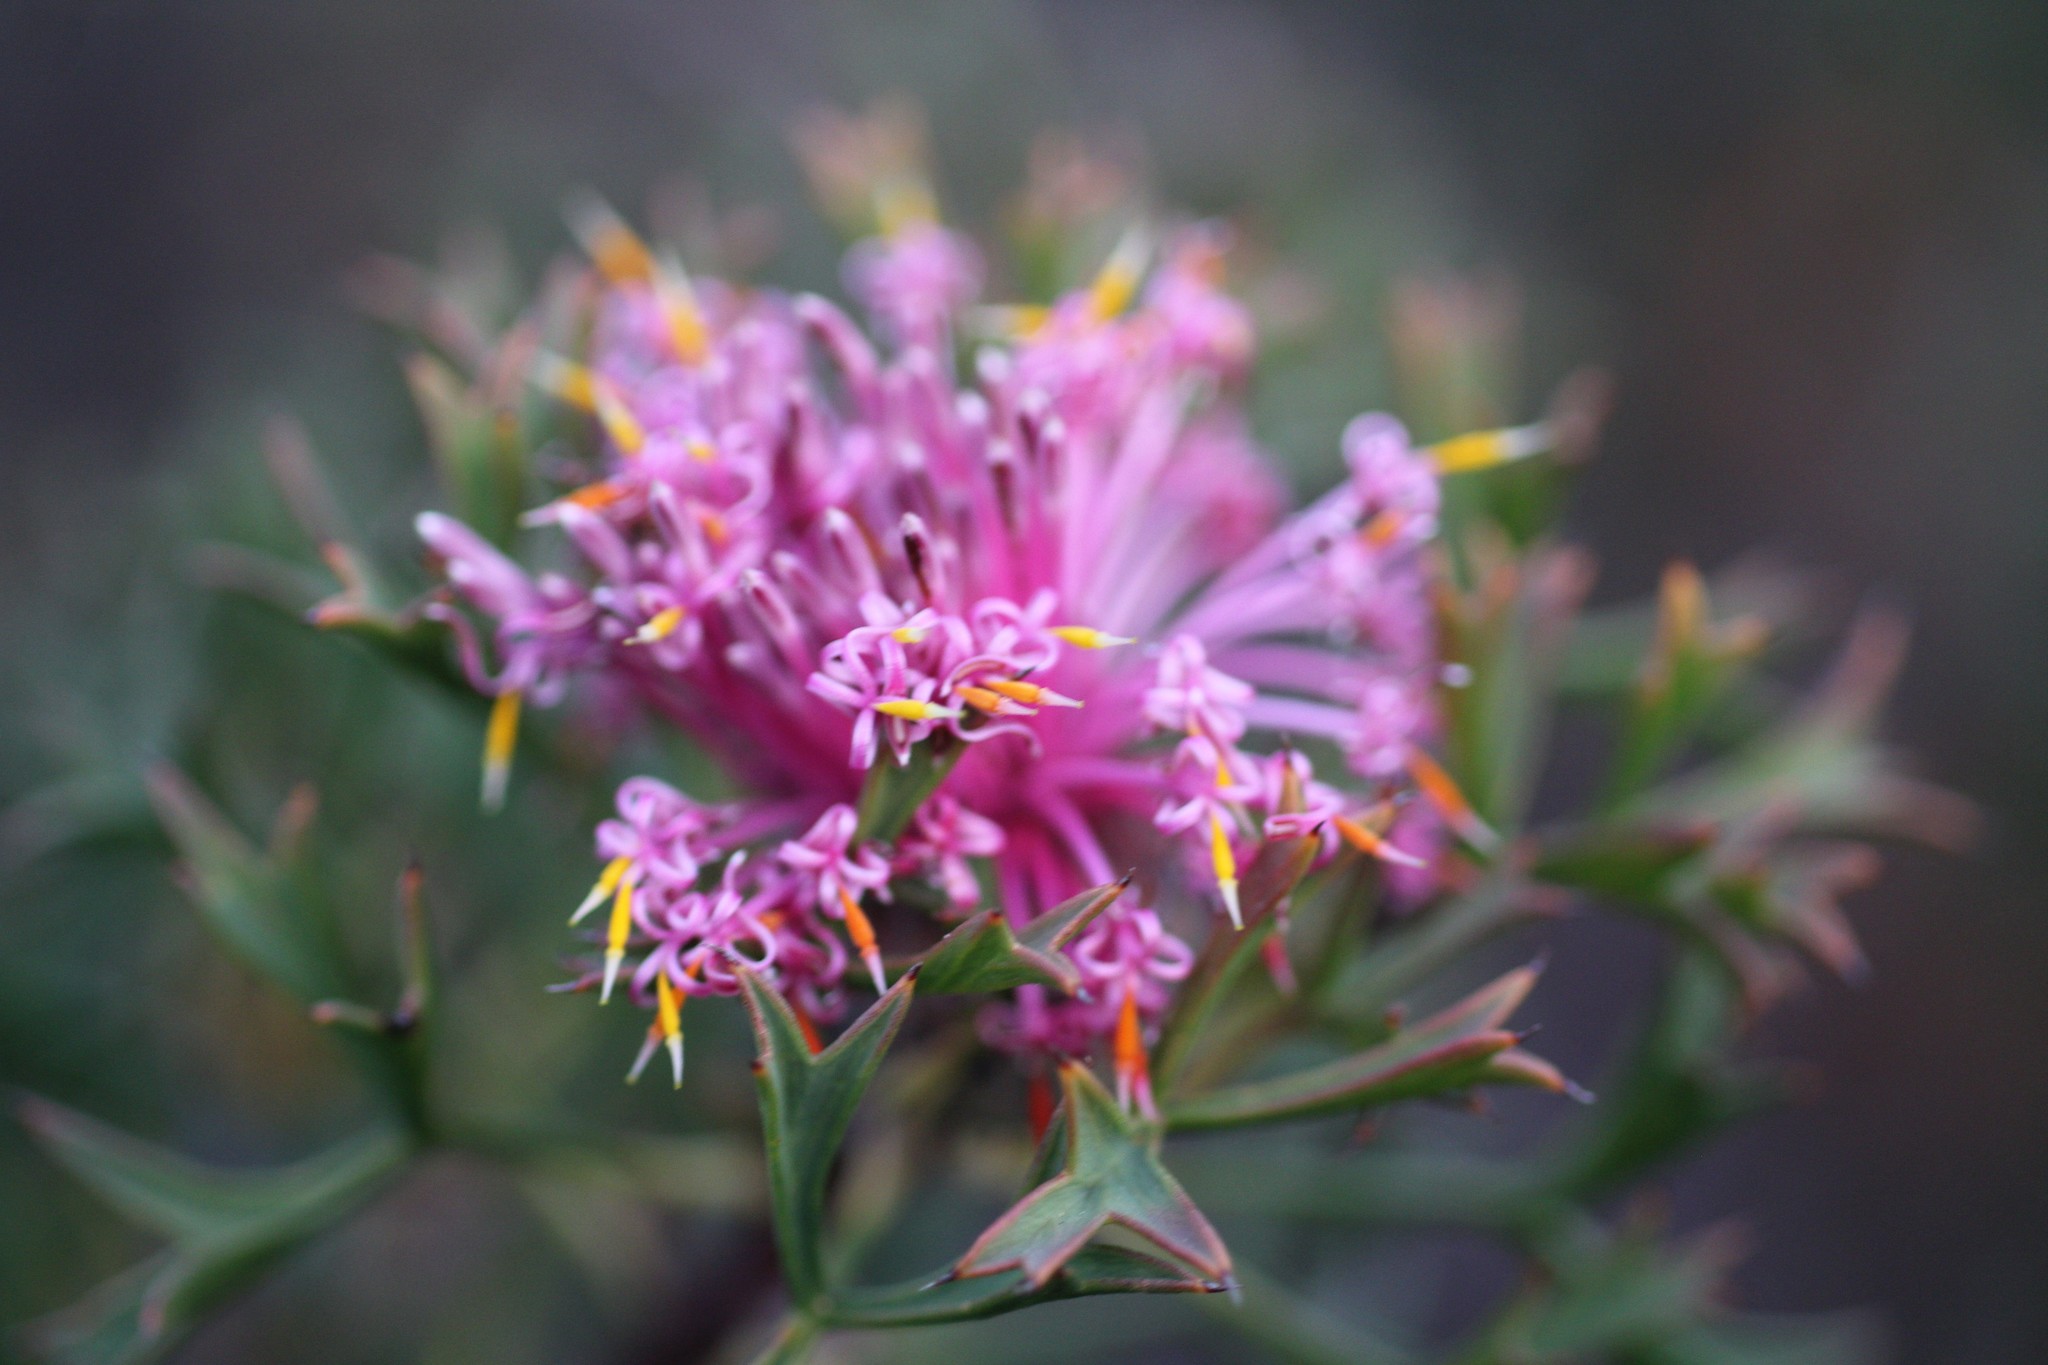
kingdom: Plantae
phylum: Tracheophyta
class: Magnoliopsida
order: Proteales
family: Proteaceae
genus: Isopogon
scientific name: Isopogon dubius
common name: Pincushion-coneflower
